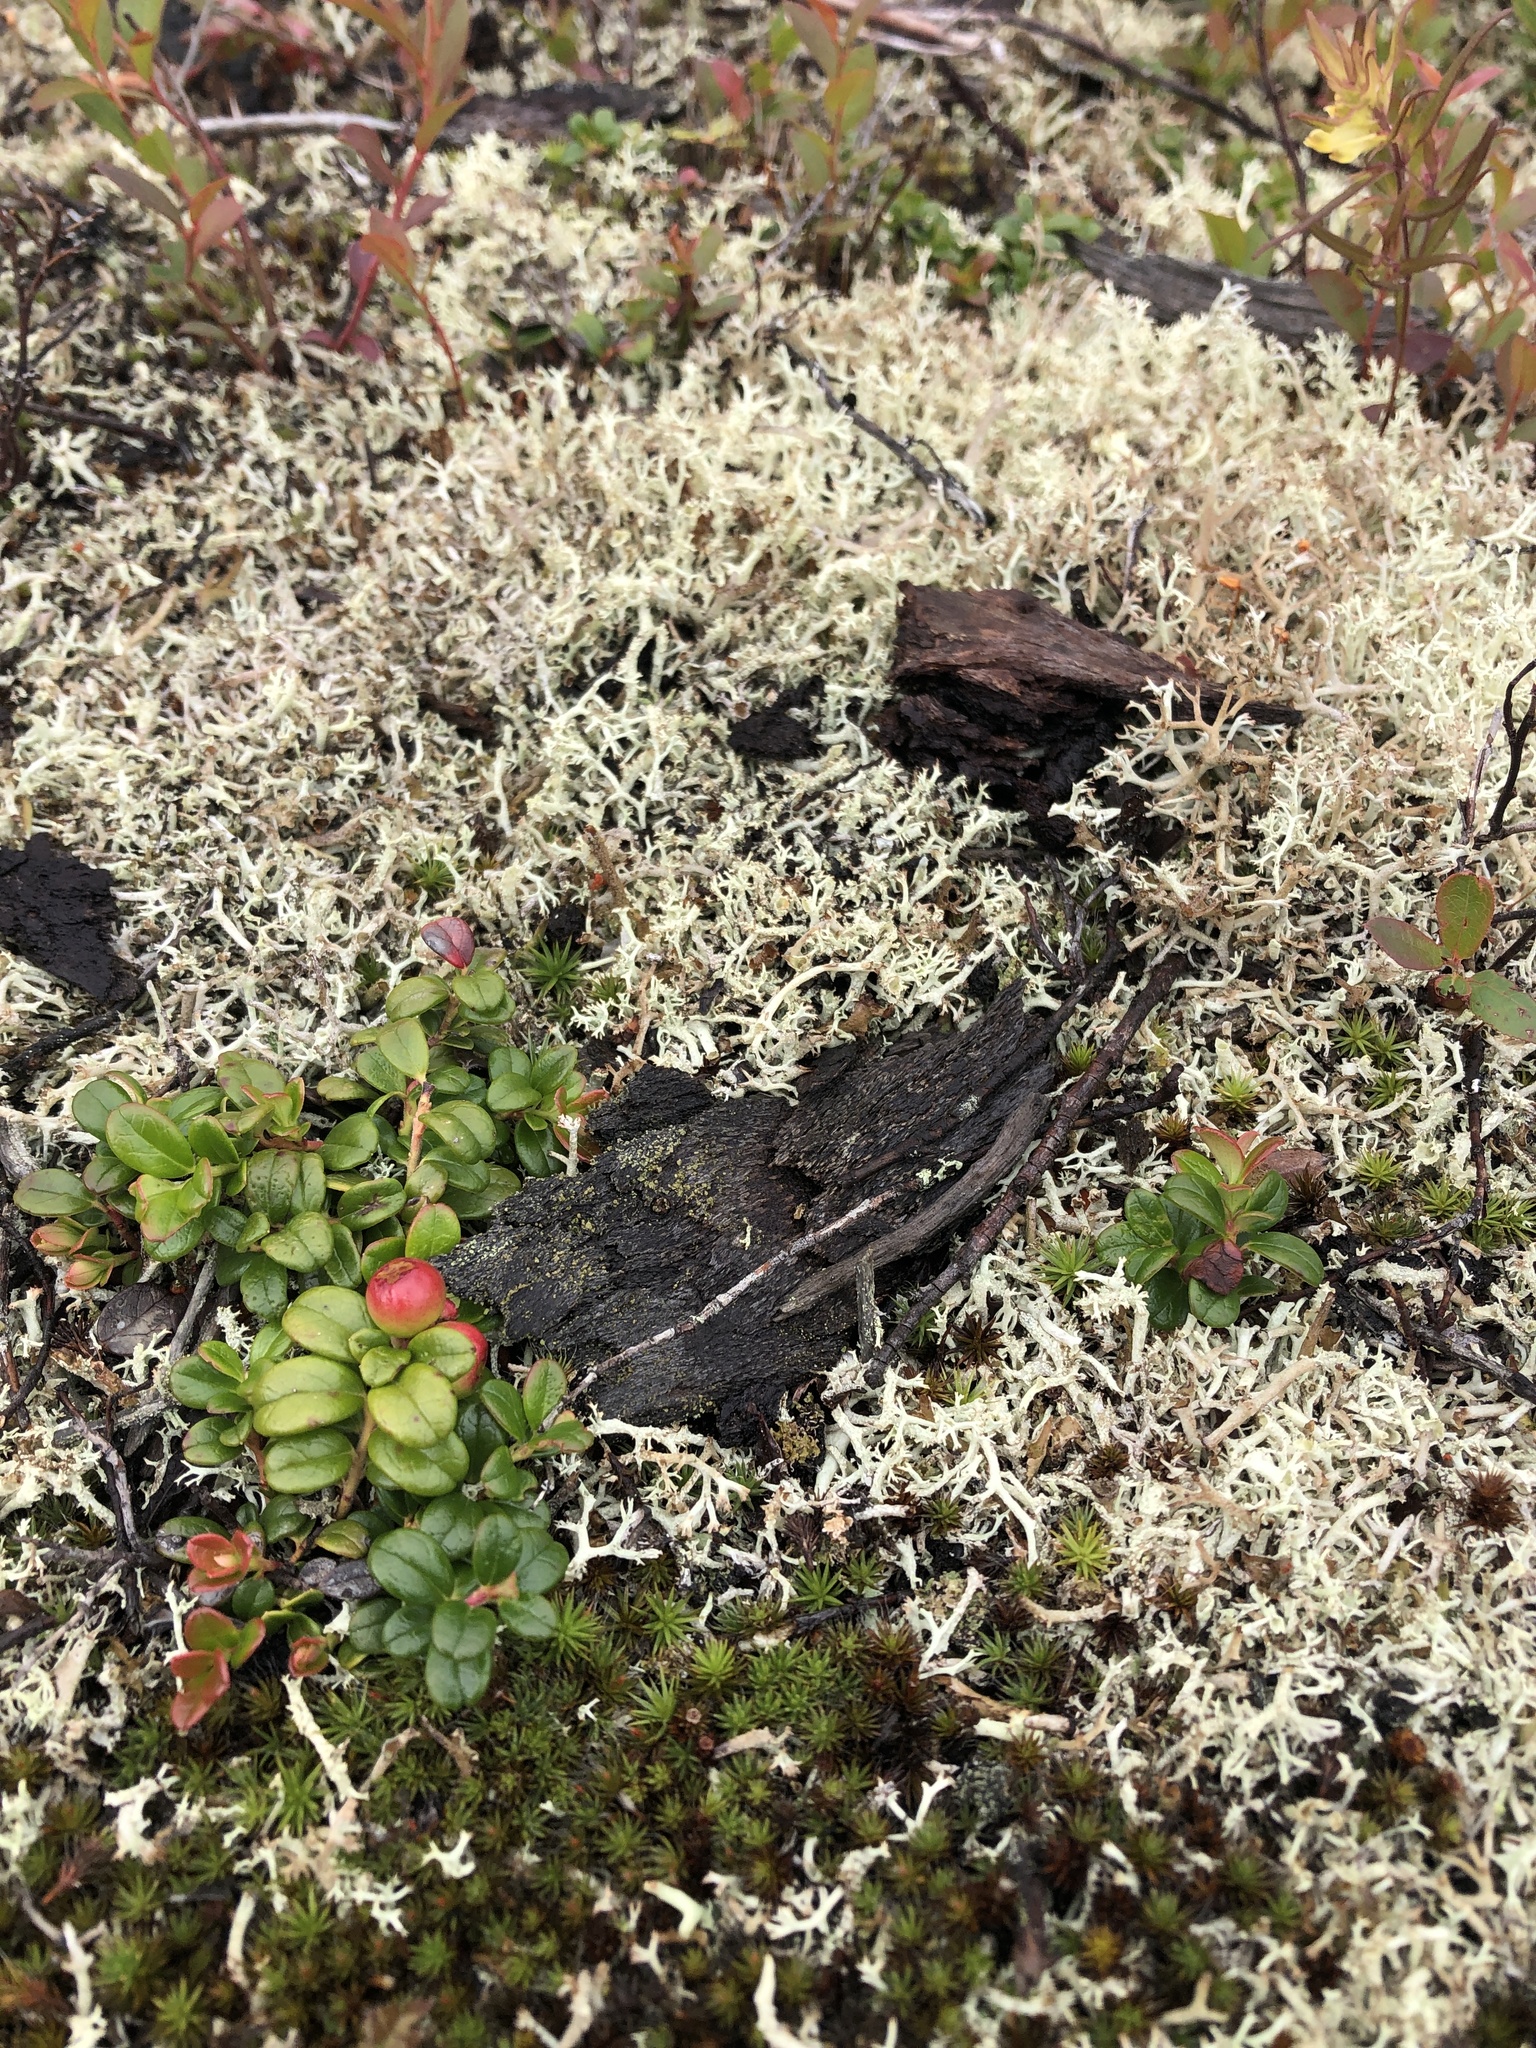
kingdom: Plantae
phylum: Tracheophyta
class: Magnoliopsida
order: Ericales
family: Ericaceae
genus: Vaccinium
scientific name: Vaccinium vitis-idaea
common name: Cowberry
